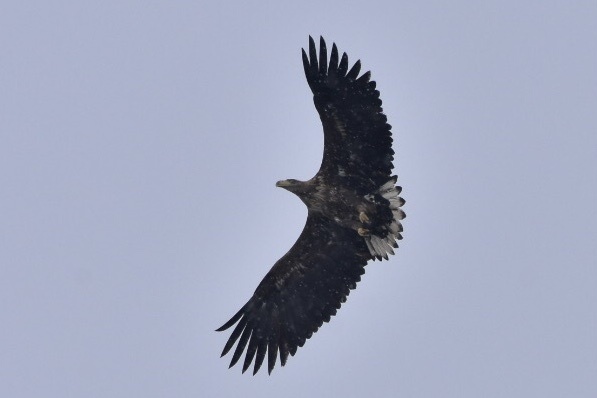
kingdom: Animalia
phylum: Chordata
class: Aves
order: Accipitriformes
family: Accipitridae
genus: Haliaeetus
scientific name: Haliaeetus albicilla
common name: White-tailed eagle
